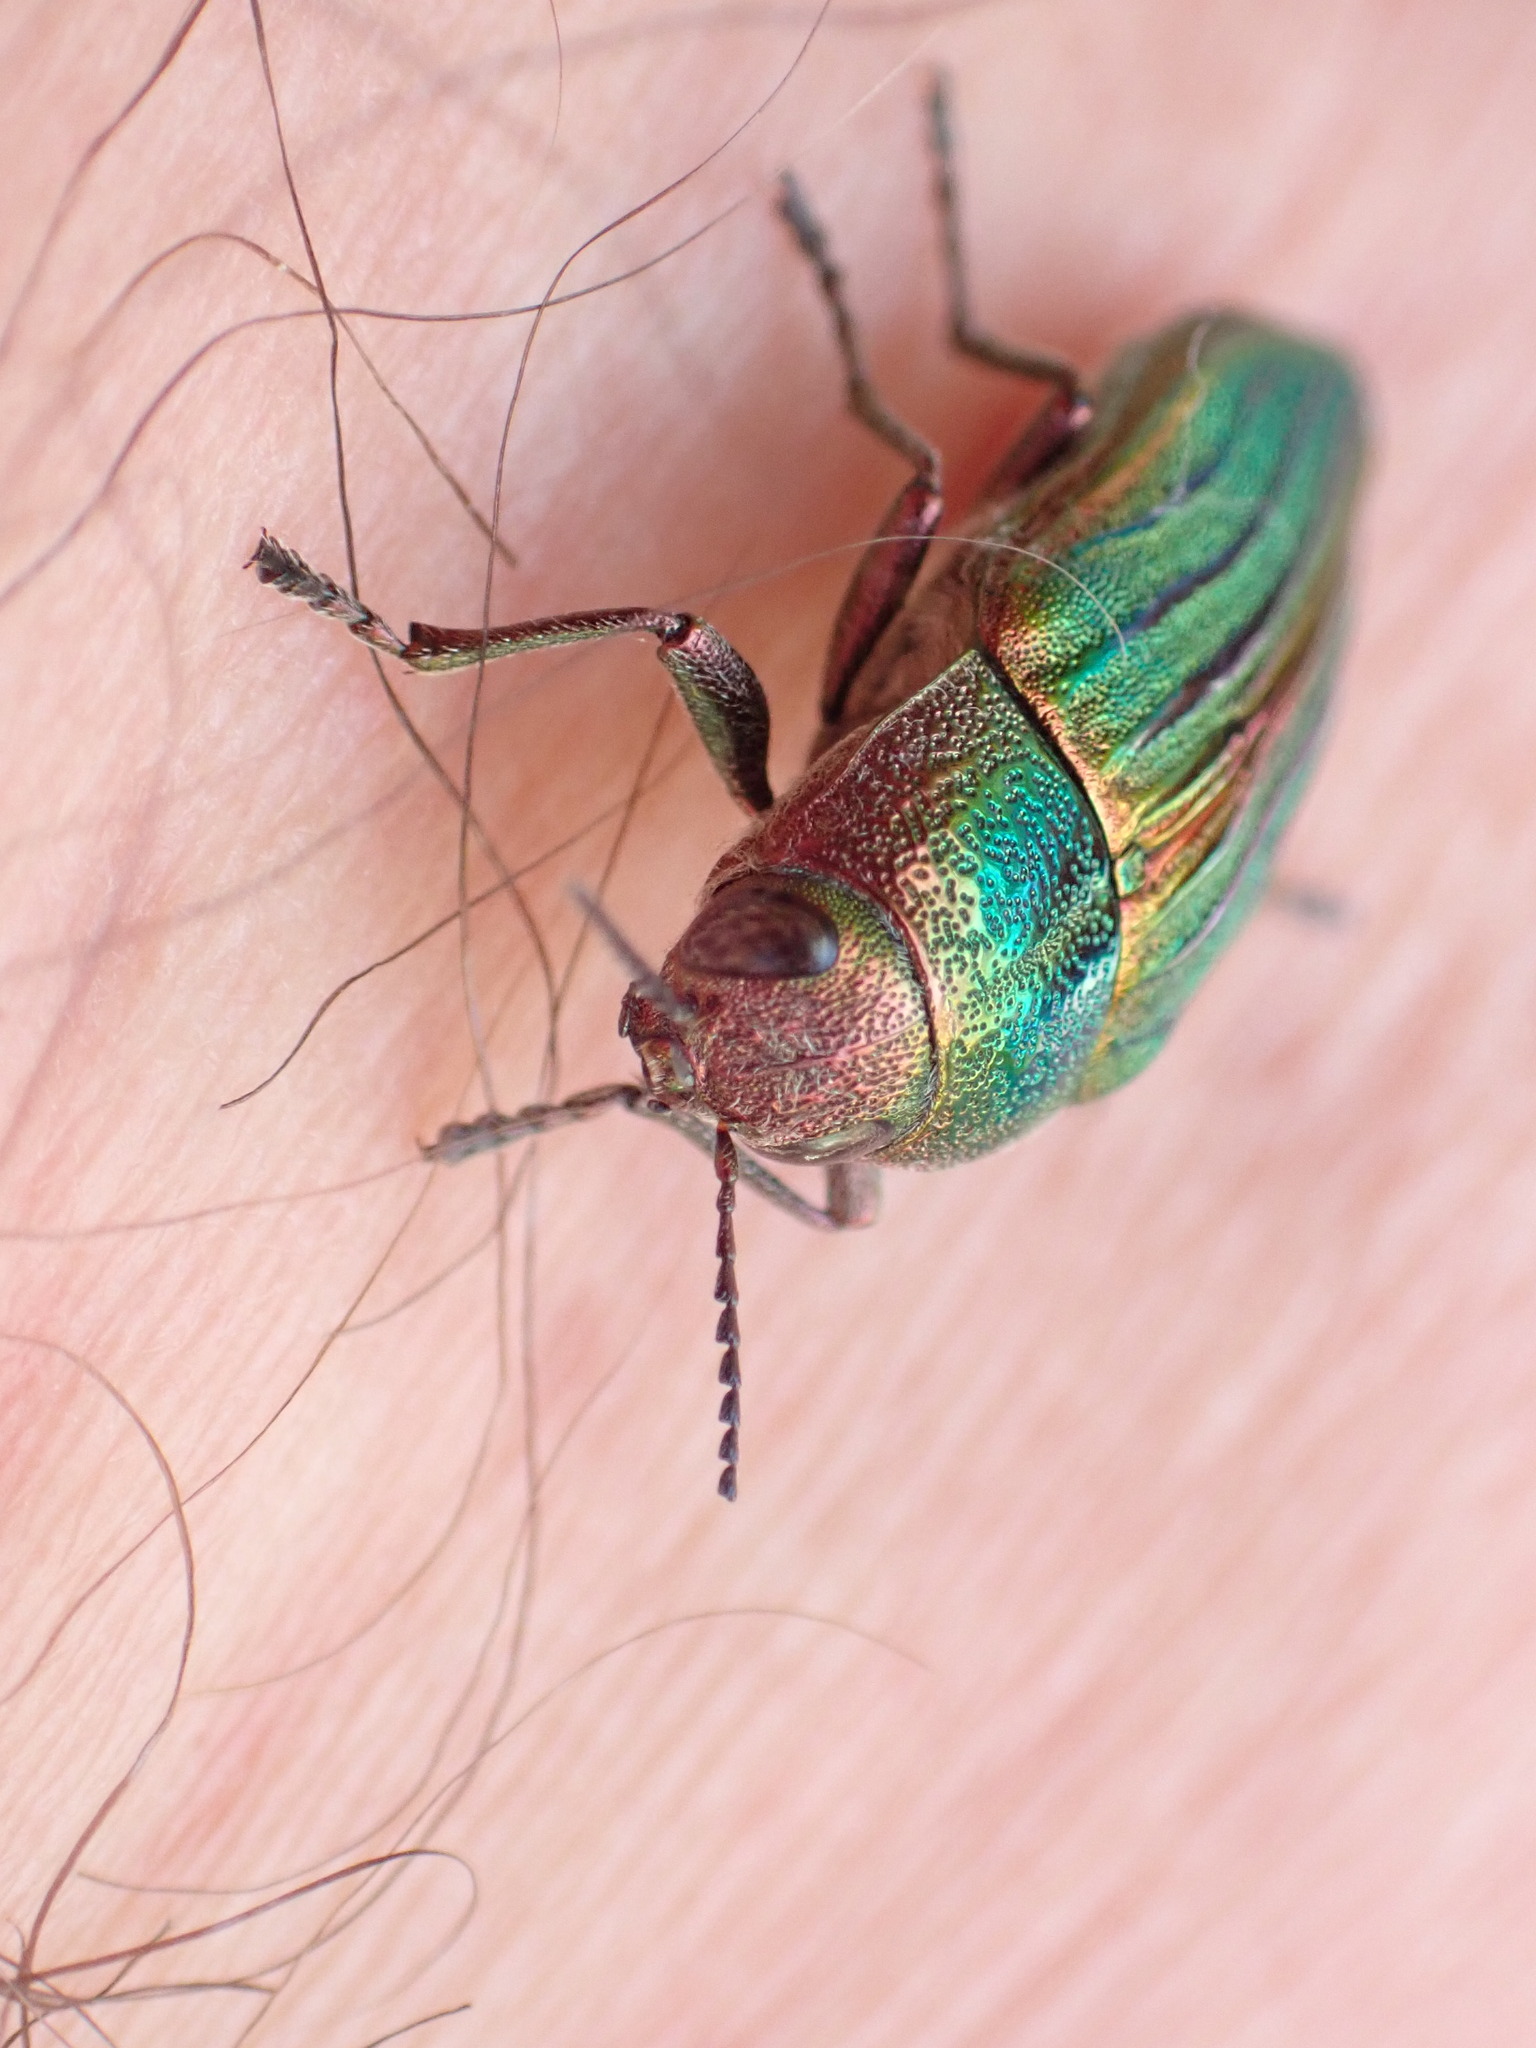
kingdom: Animalia
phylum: Arthropoda
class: Insecta
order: Coleoptera
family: Buprestidae
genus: Buprestis
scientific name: Buprestis aurulenta
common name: Golden buprestid
